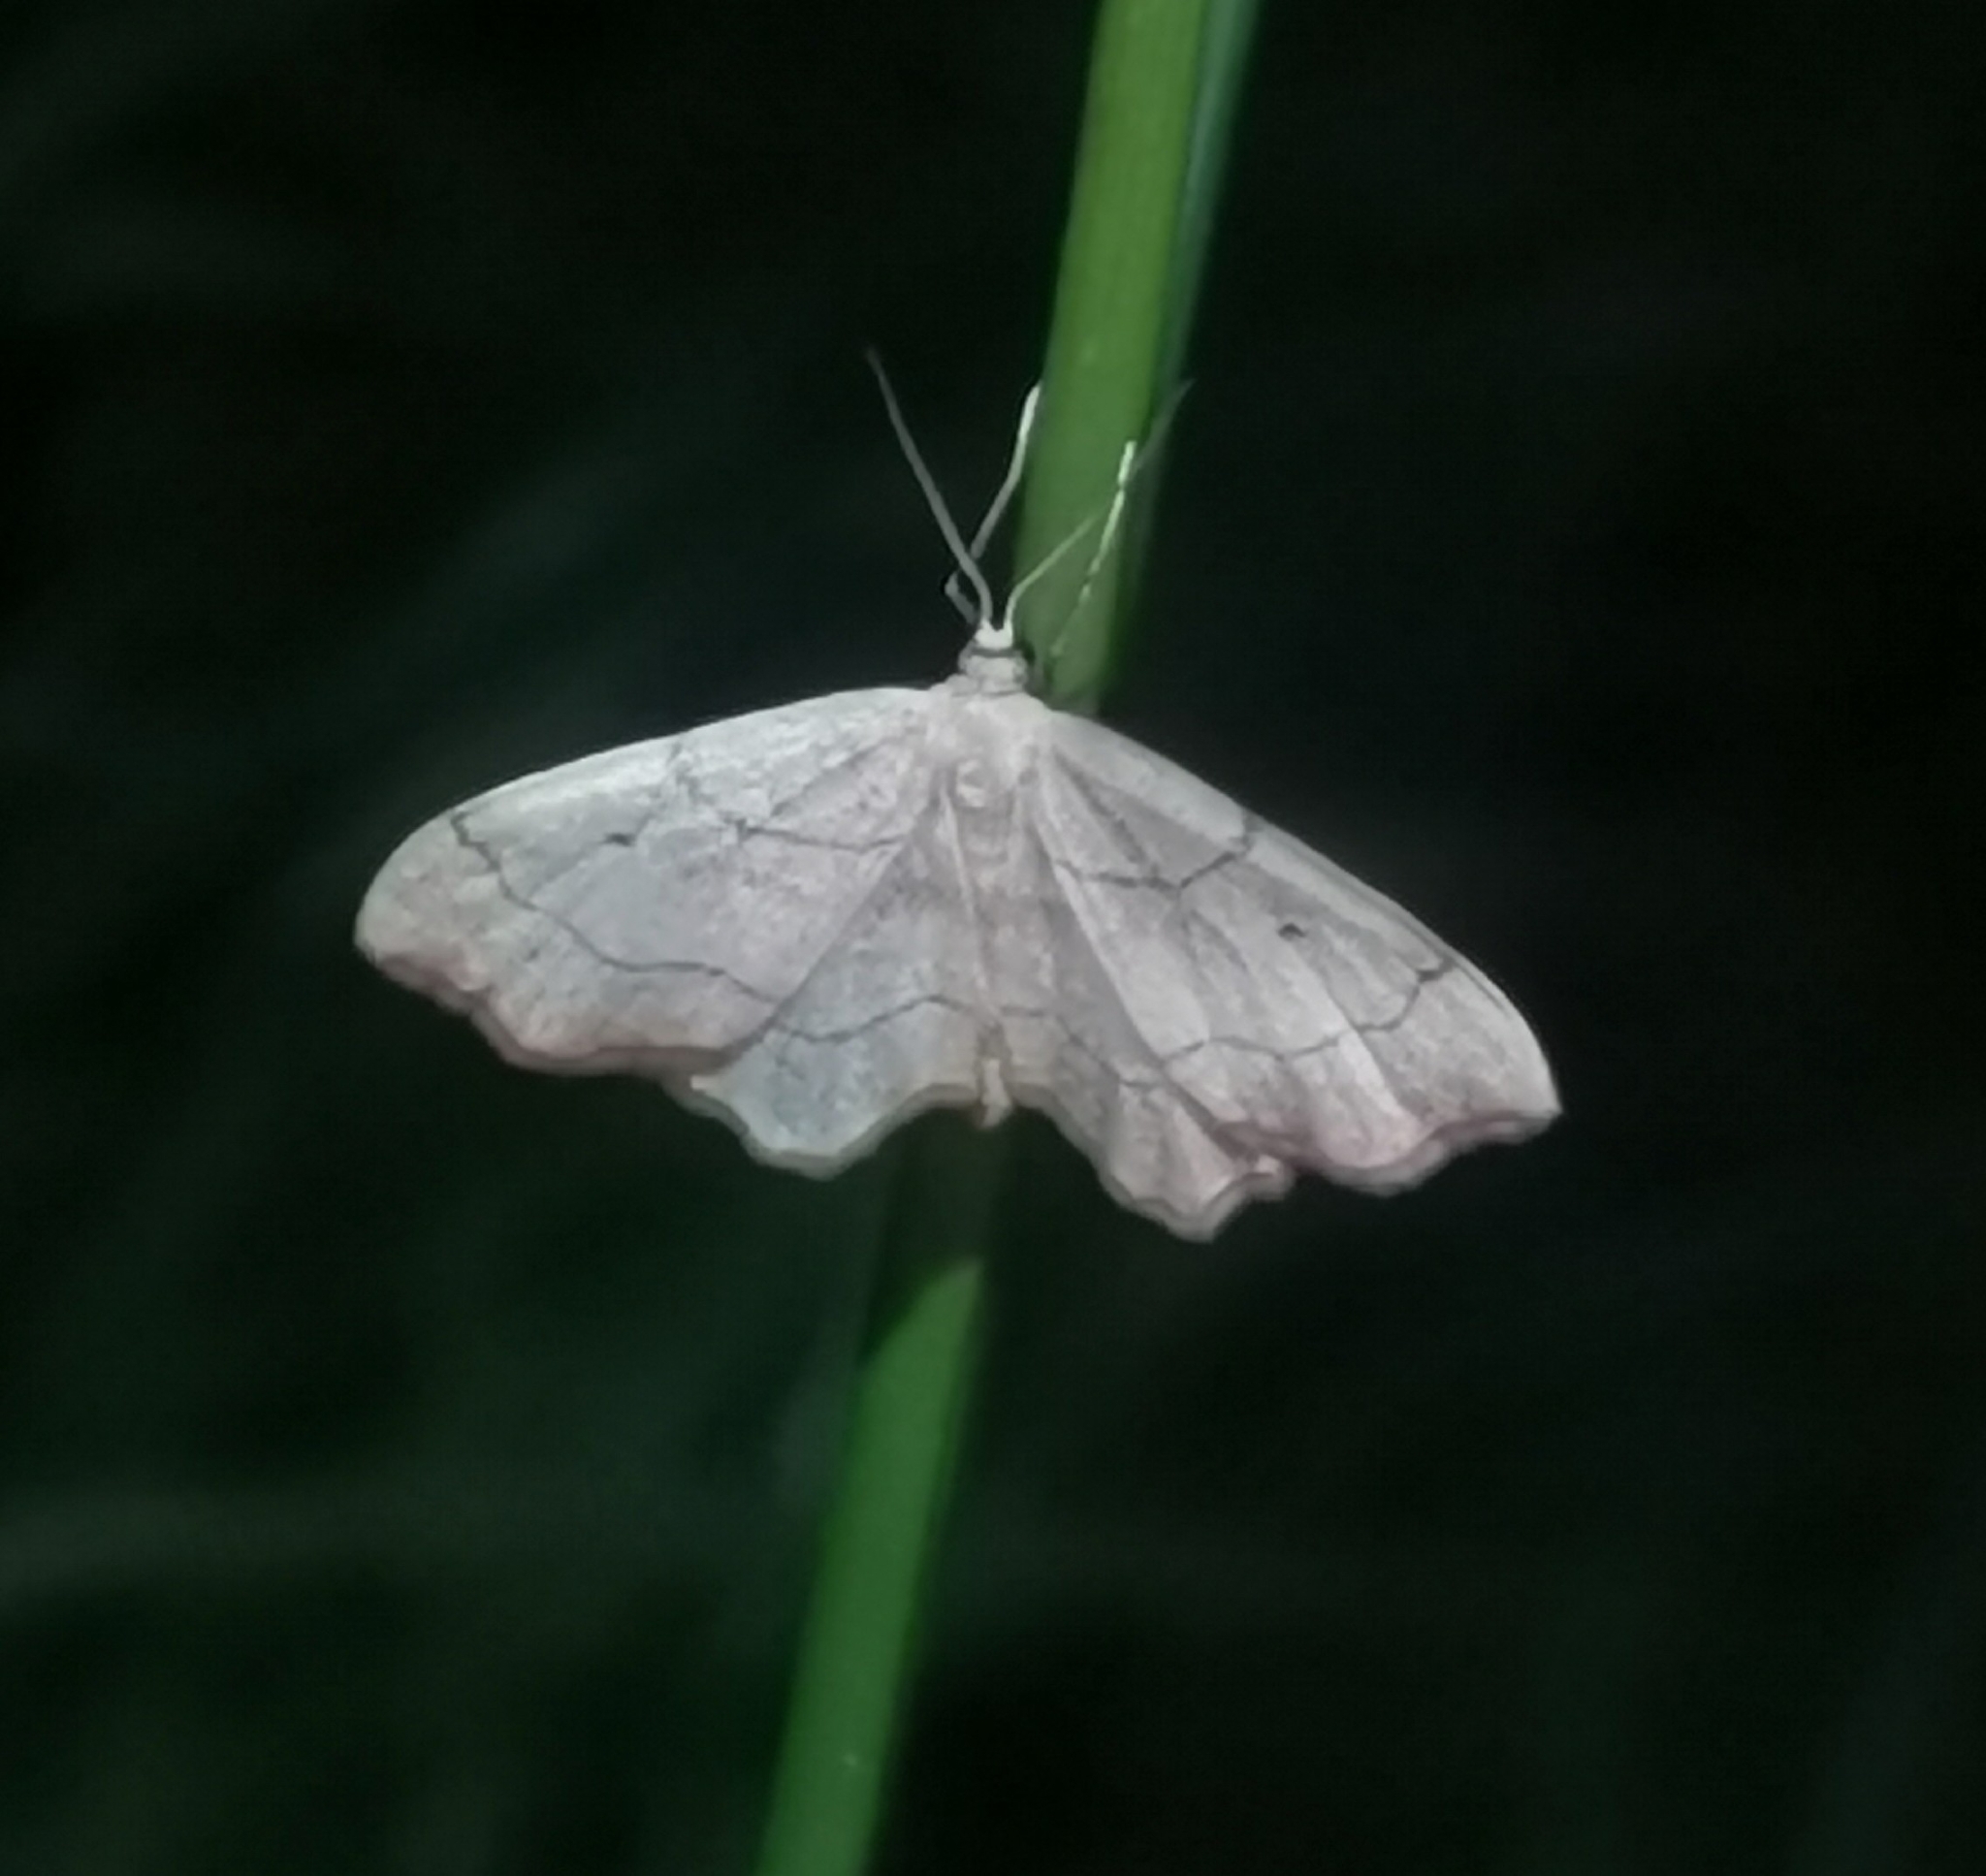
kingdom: Animalia
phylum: Arthropoda
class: Insecta
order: Lepidoptera
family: Geometridae
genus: Idaea
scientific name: Idaea emarginata
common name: Small scallop
